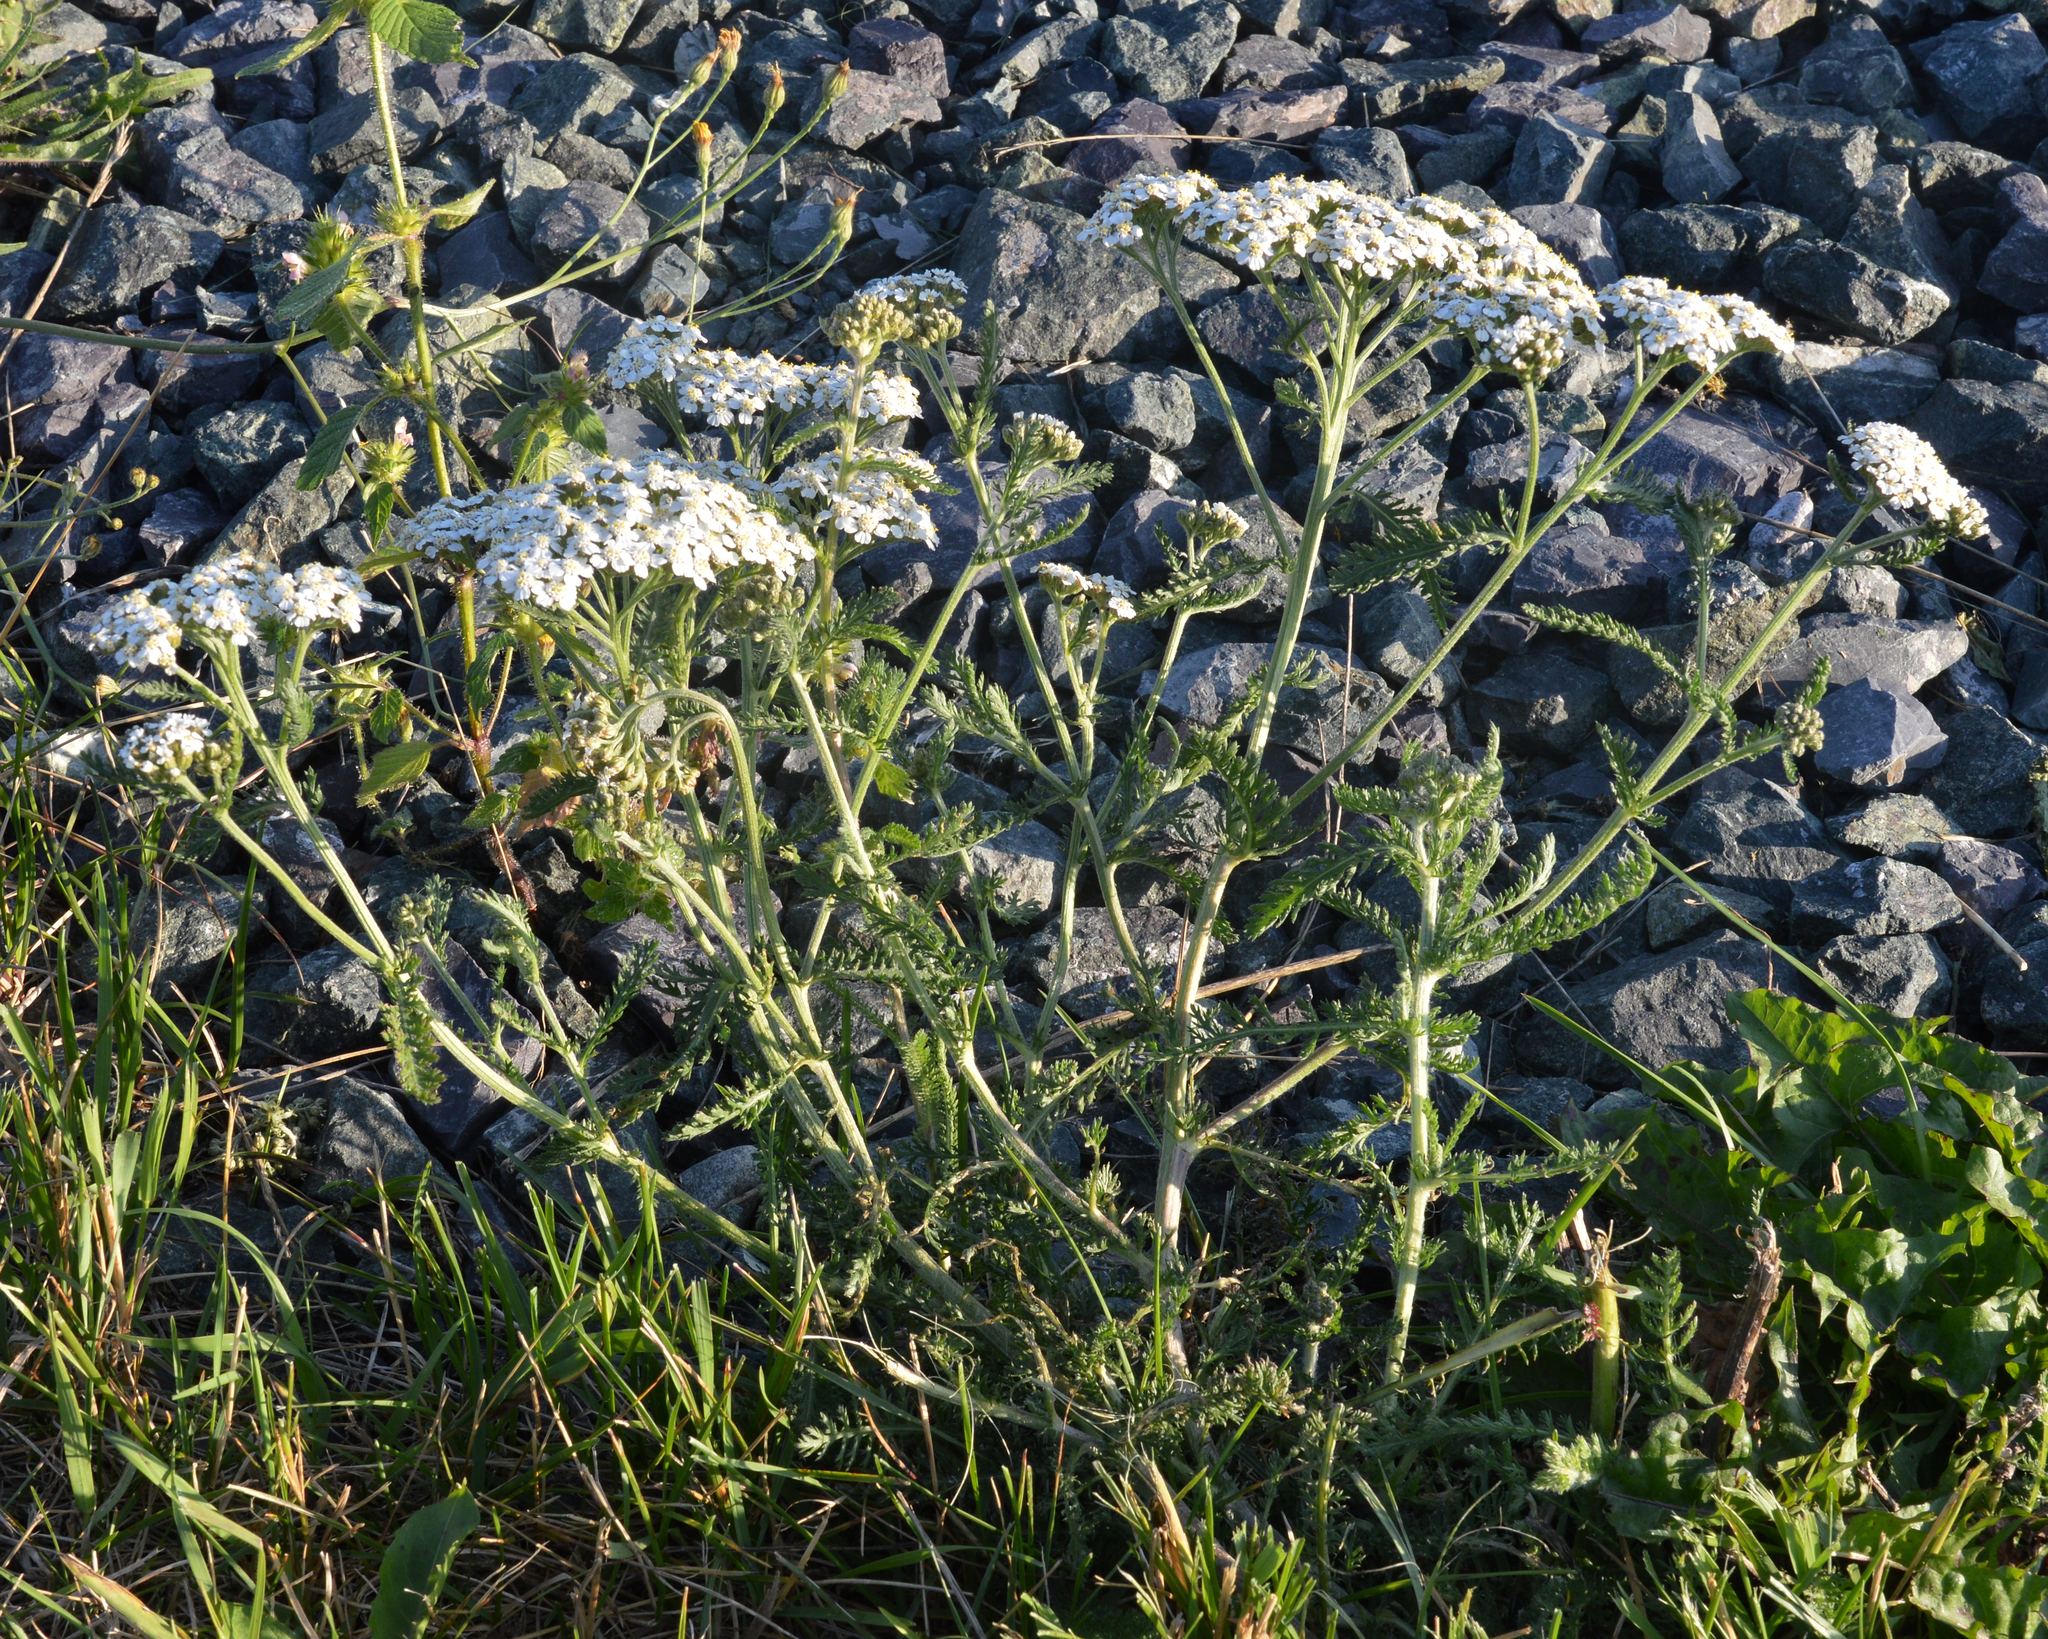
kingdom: Plantae
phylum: Tracheophyta
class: Magnoliopsida
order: Asterales
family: Asteraceae
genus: Achillea
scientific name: Achillea millefolium
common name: Yarrow
